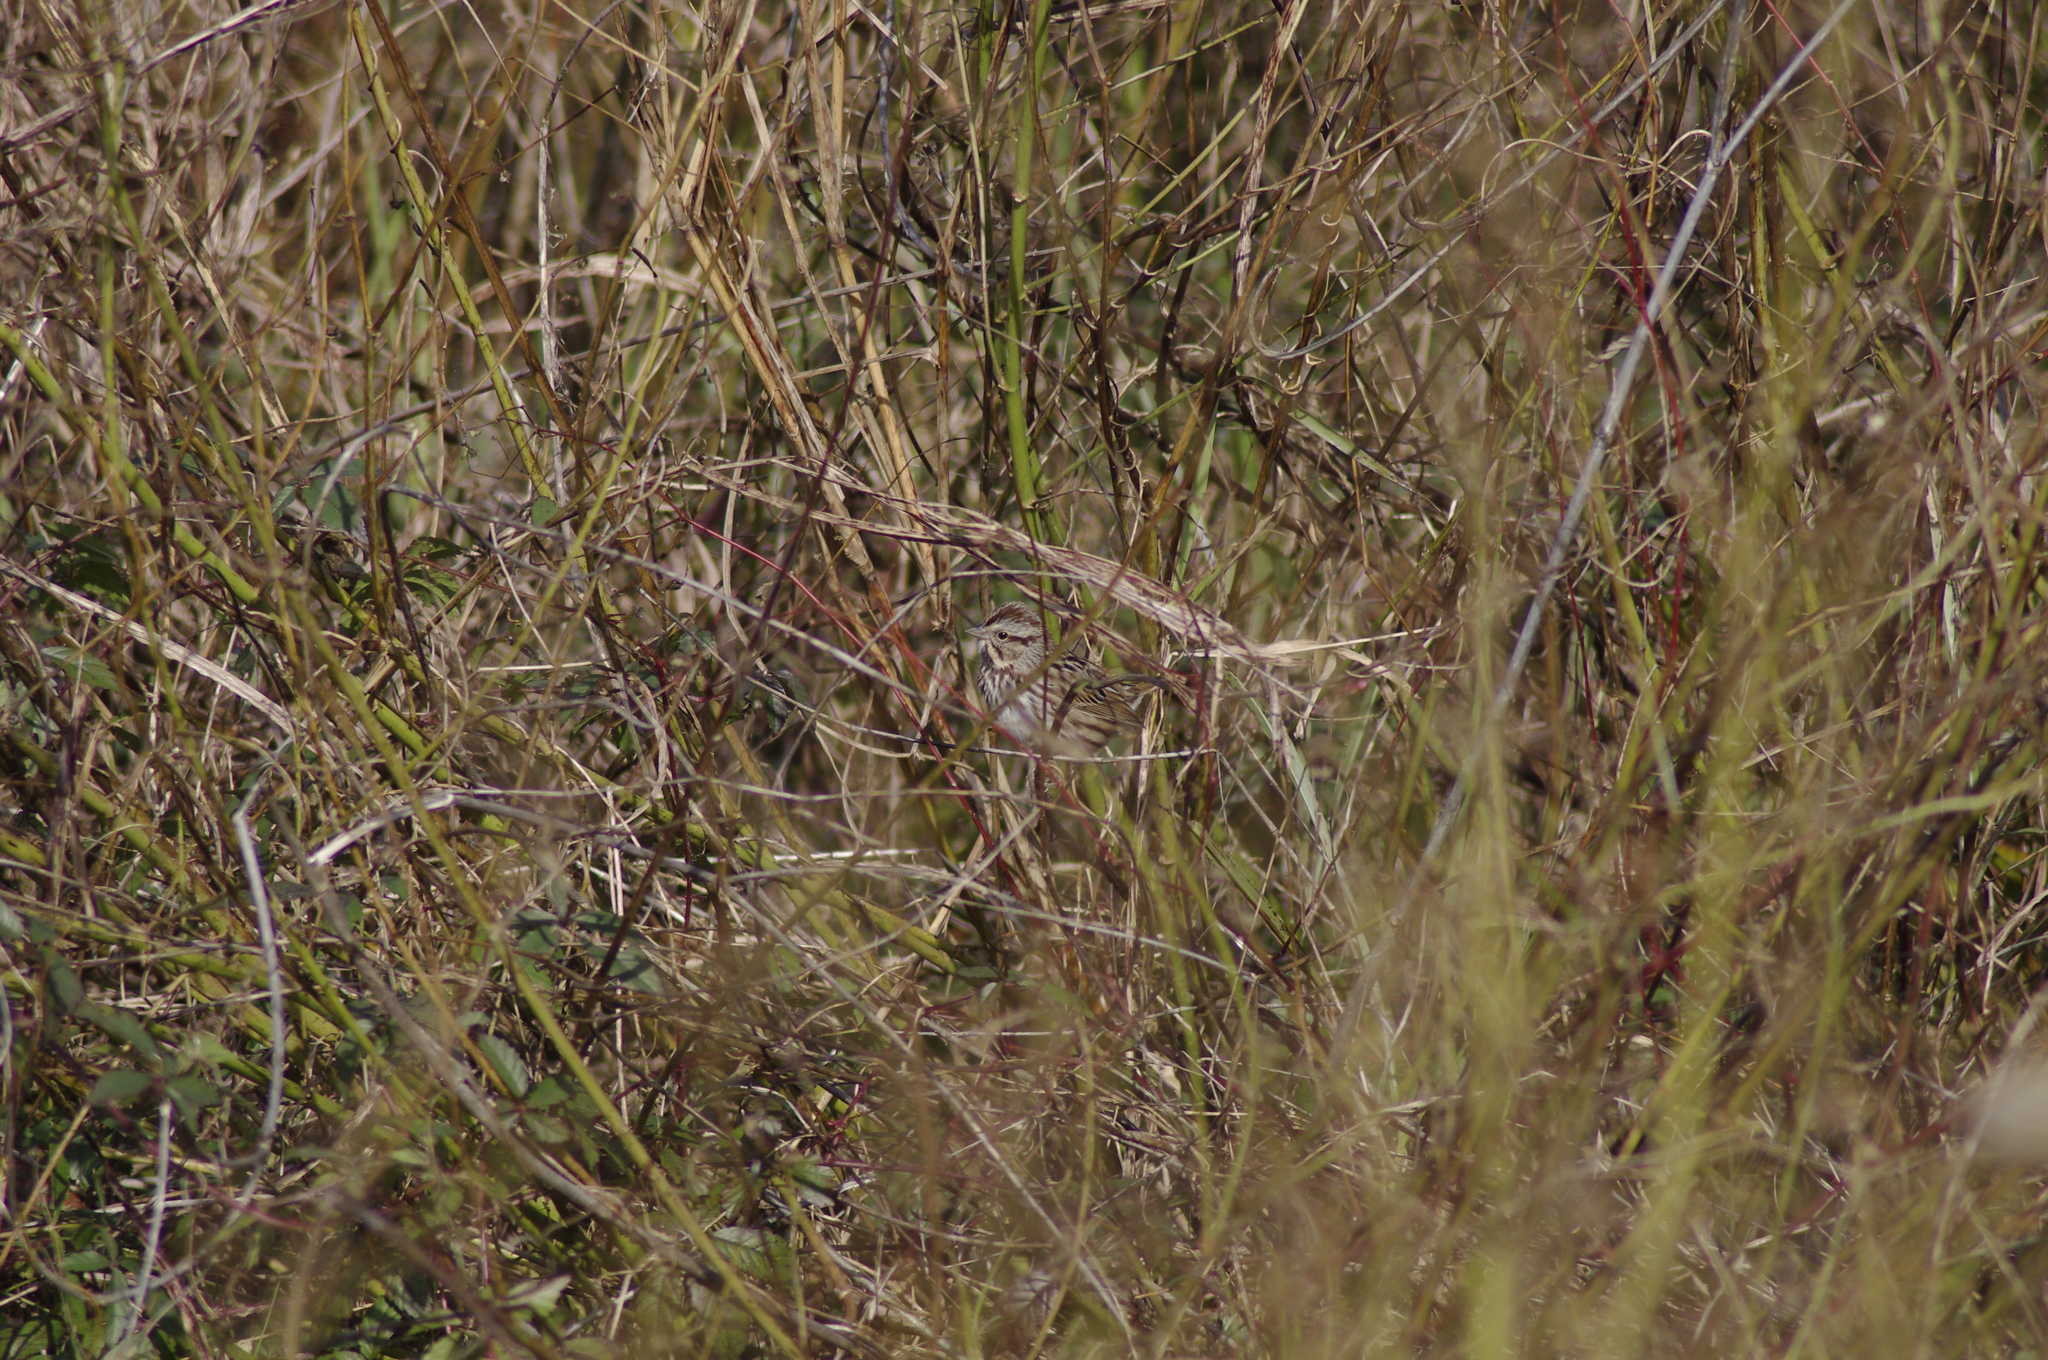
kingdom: Animalia
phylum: Chordata
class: Aves
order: Passeriformes
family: Passerellidae
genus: Melospiza
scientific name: Melospiza melodia
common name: Song sparrow
